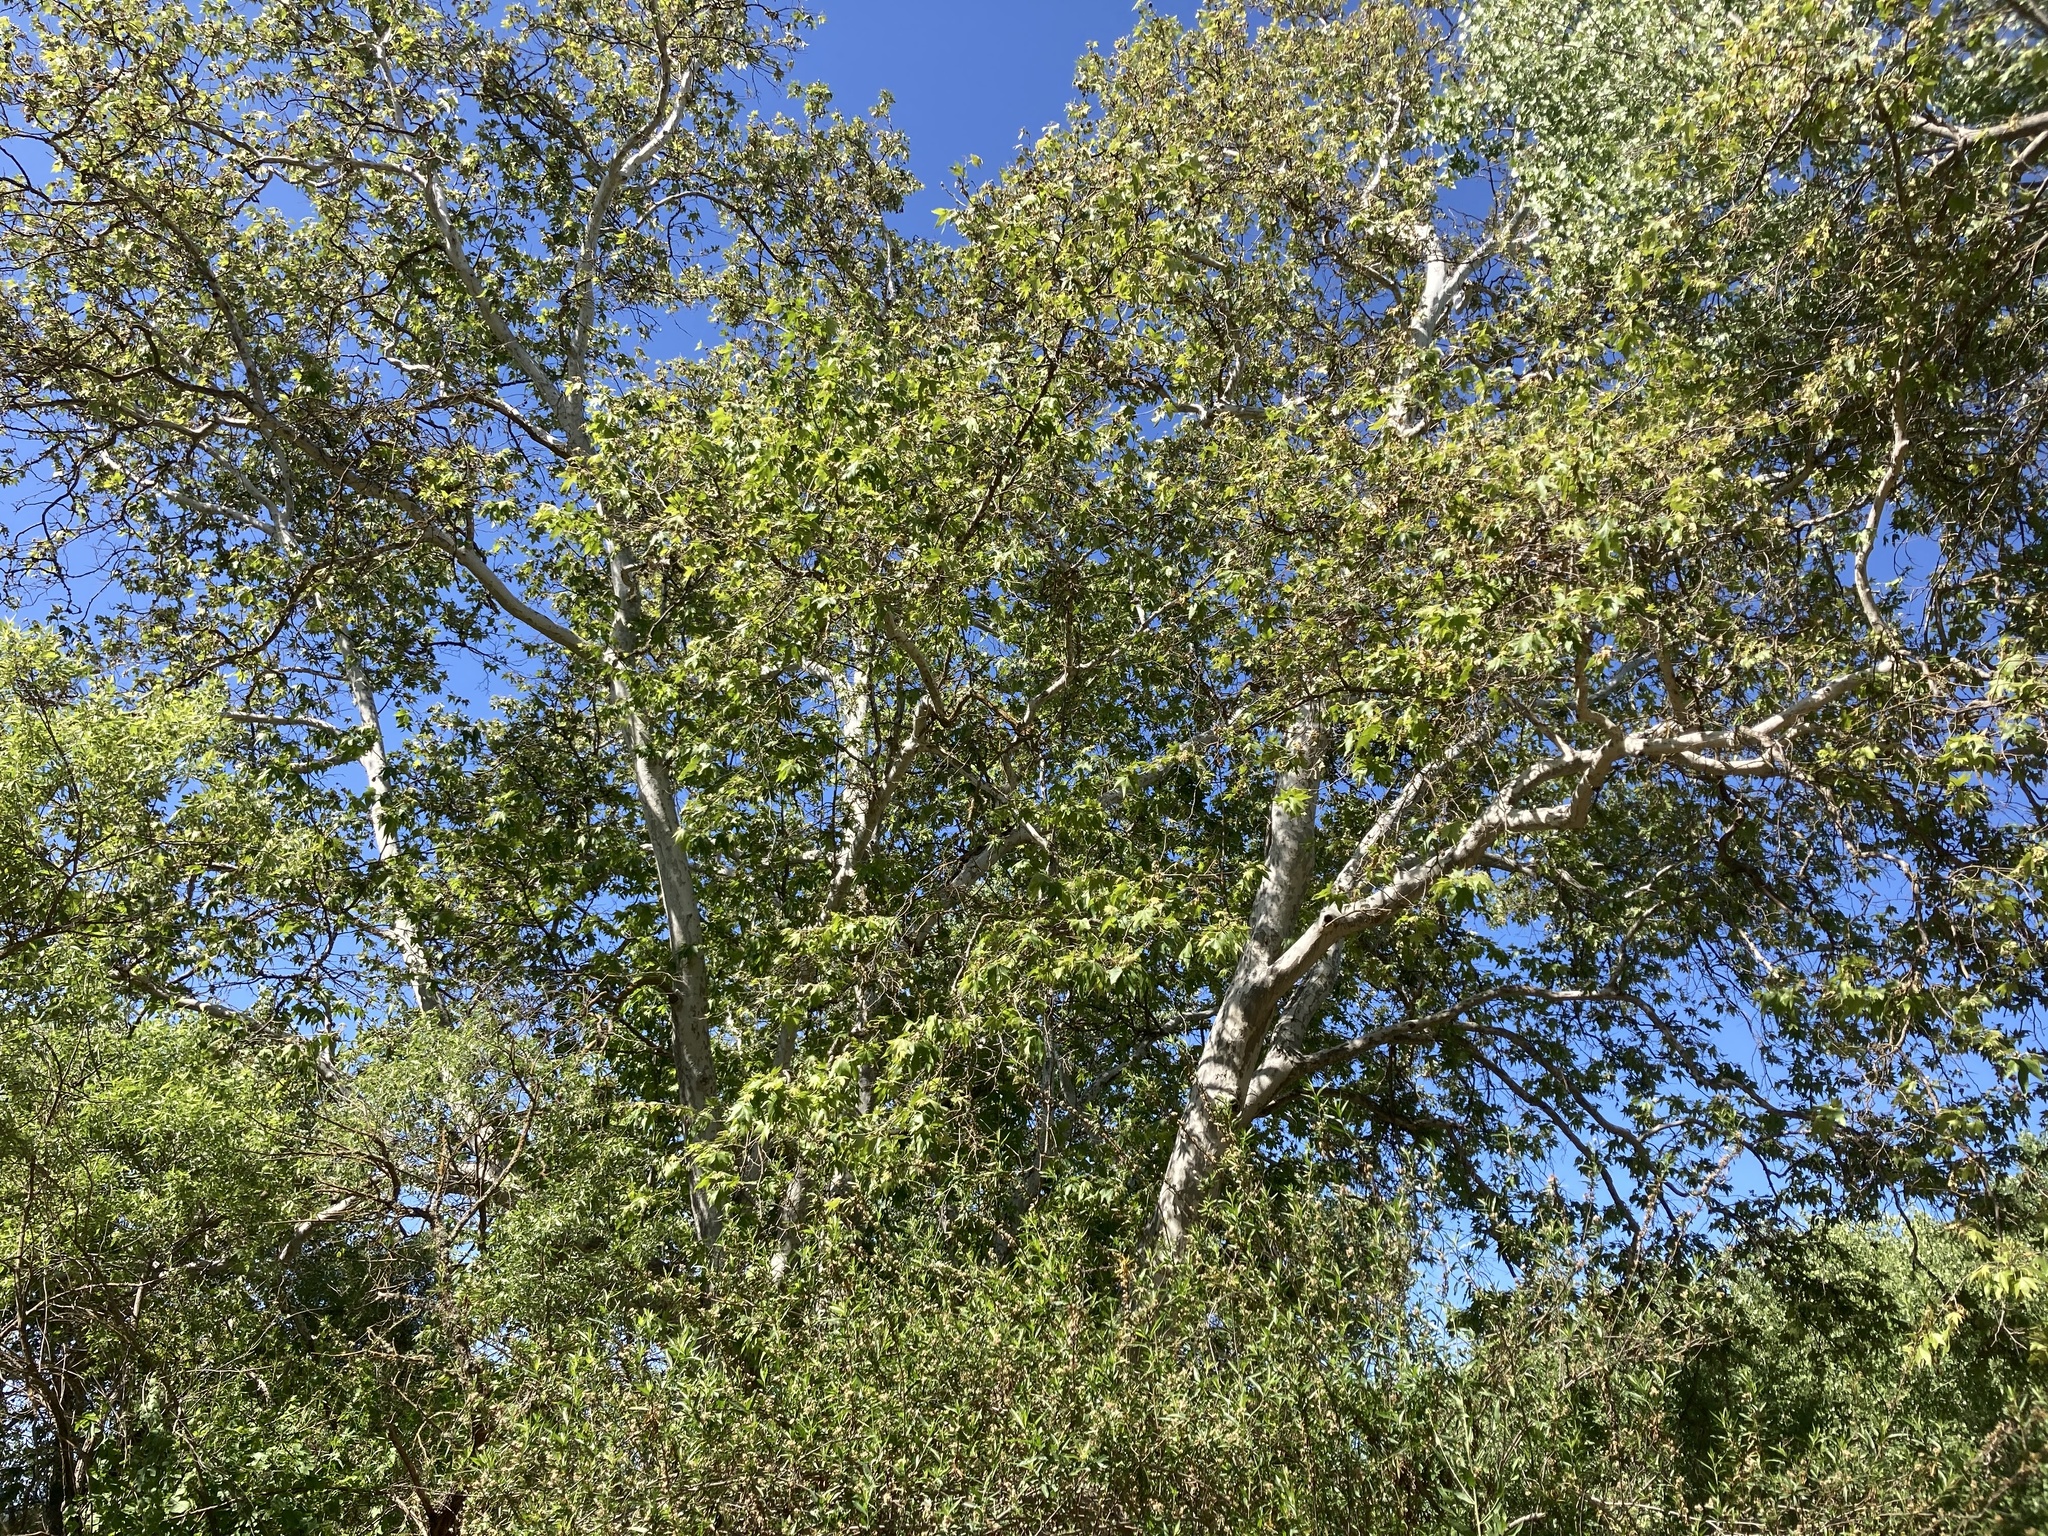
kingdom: Plantae
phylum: Tracheophyta
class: Magnoliopsida
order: Proteales
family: Platanaceae
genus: Platanus
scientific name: Platanus racemosa
